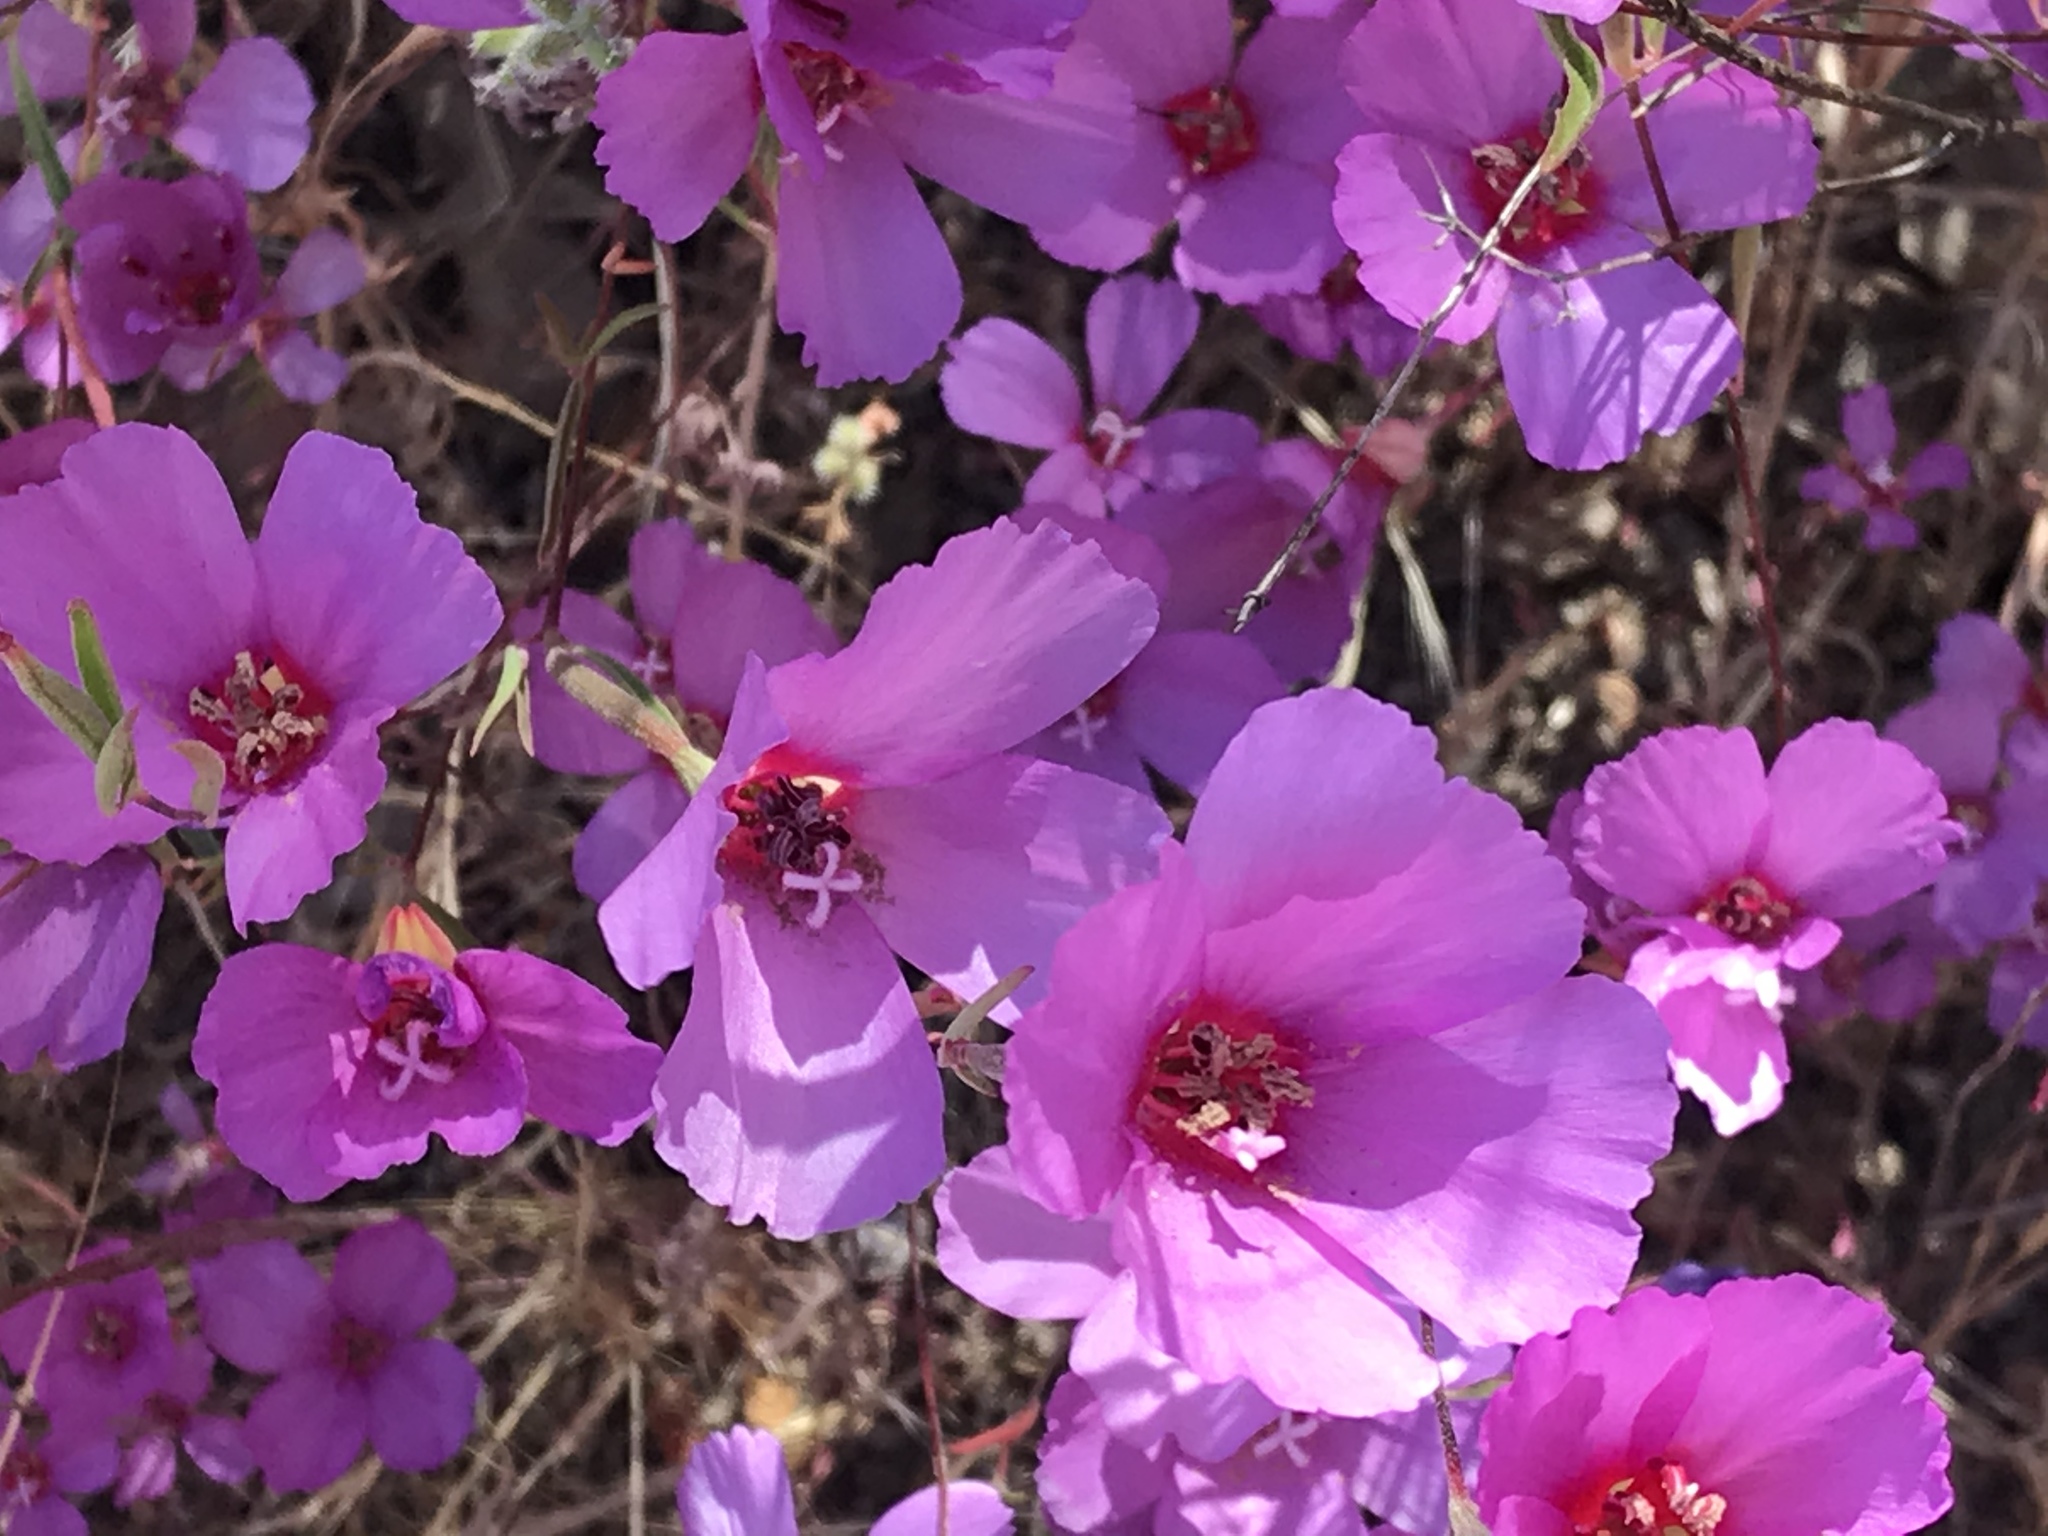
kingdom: Plantae
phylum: Tracheophyta
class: Magnoliopsida
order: Myrtales
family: Onagraceae
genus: Clarkia
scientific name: Clarkia rubicunda
